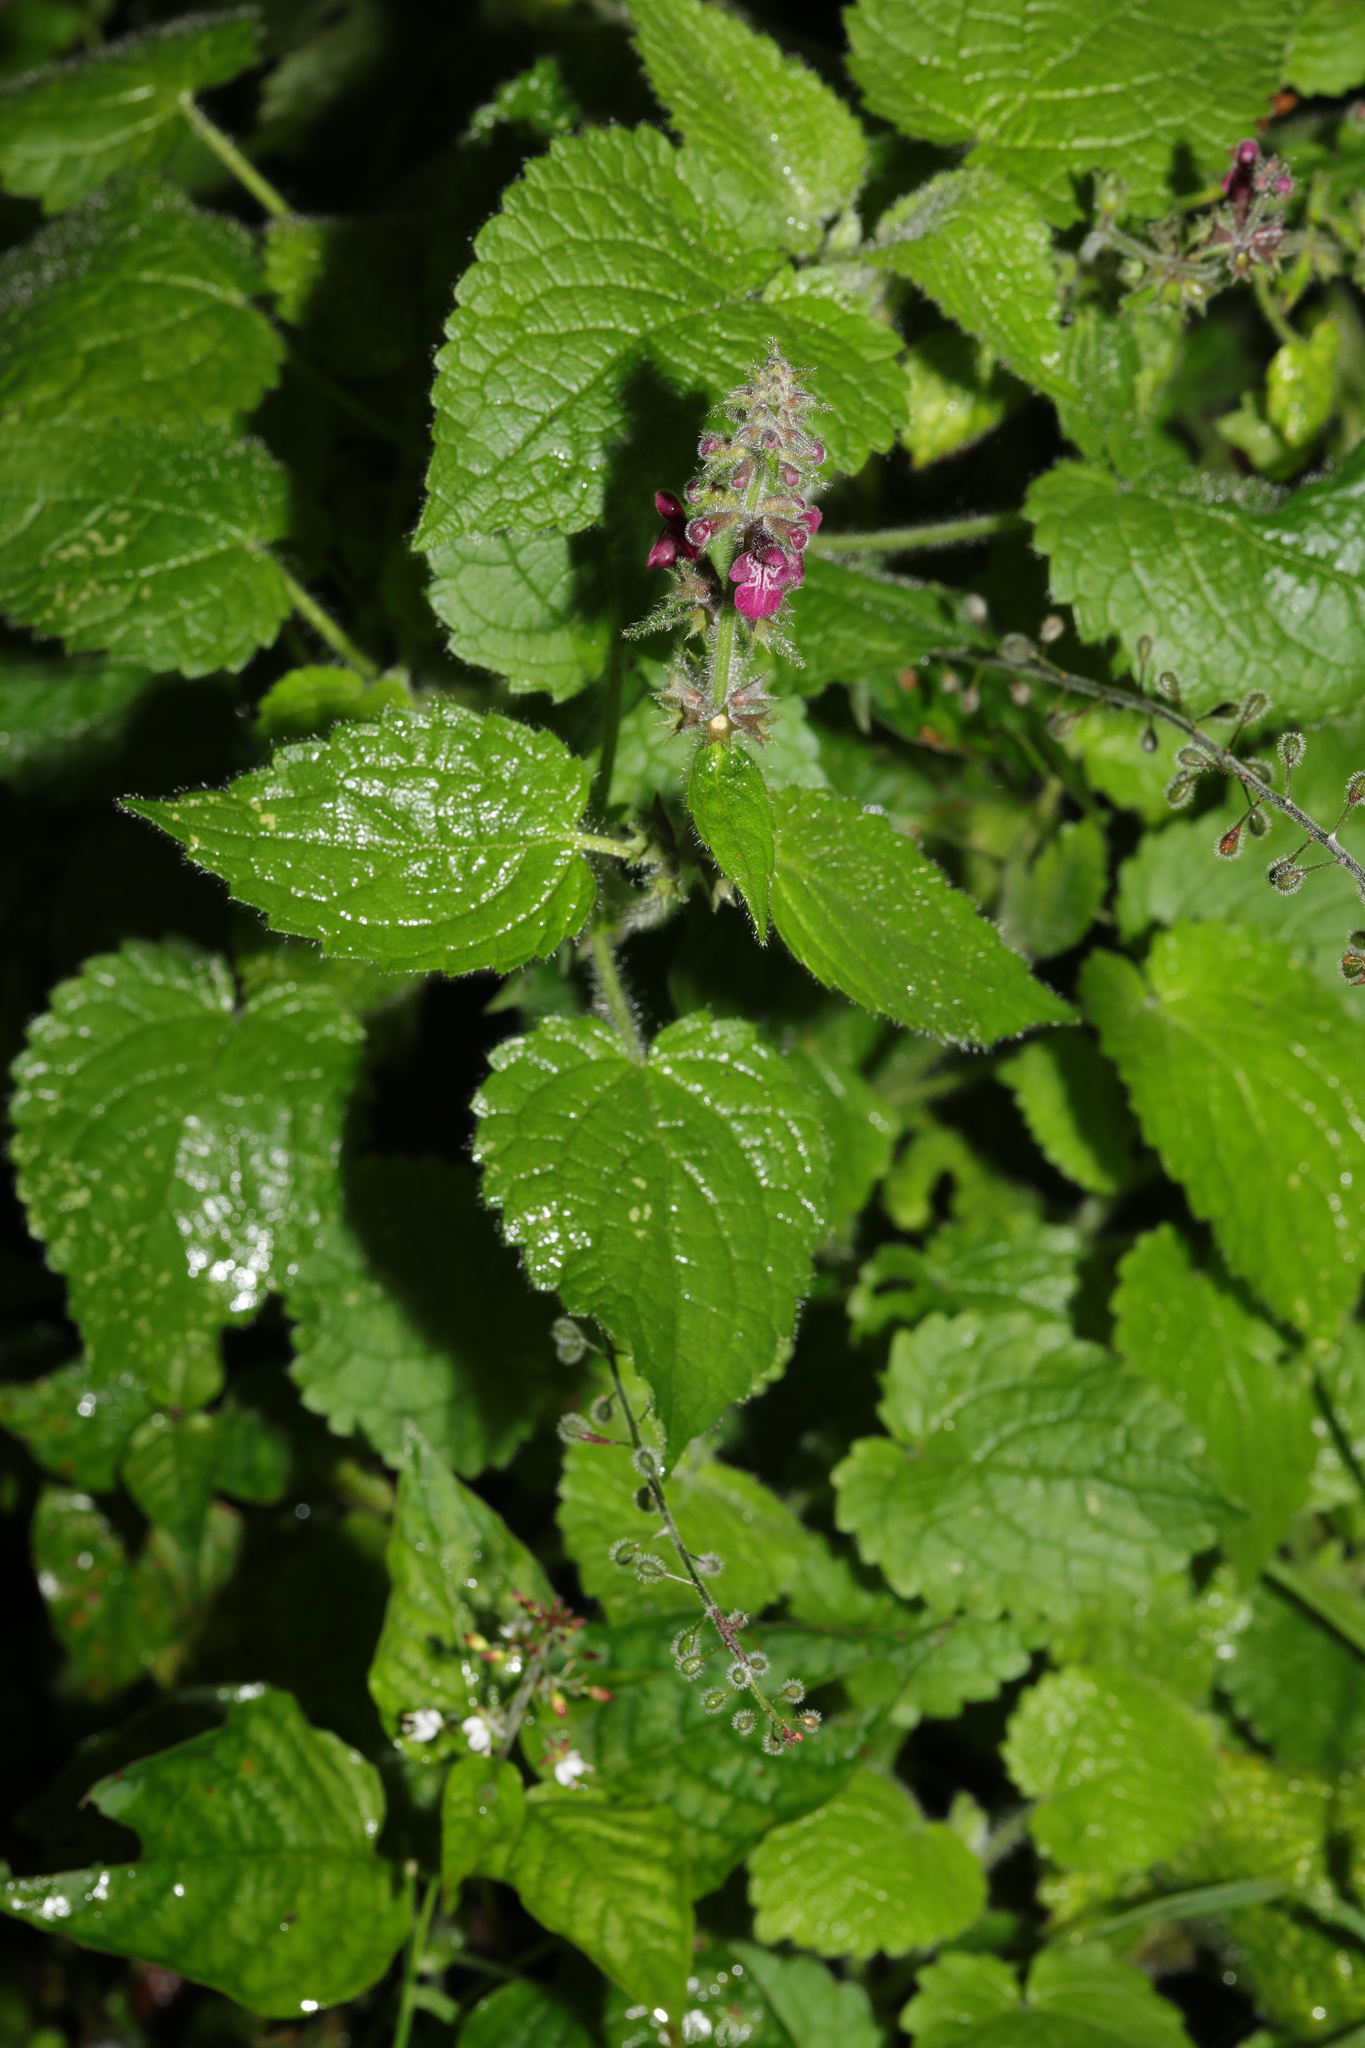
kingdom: Plantae
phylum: Tracheophyta
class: Magnoliopsida
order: Lamiales
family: Lamiaceae
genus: Stachys
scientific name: Stachys sylvatica
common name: Hedge woundwort
